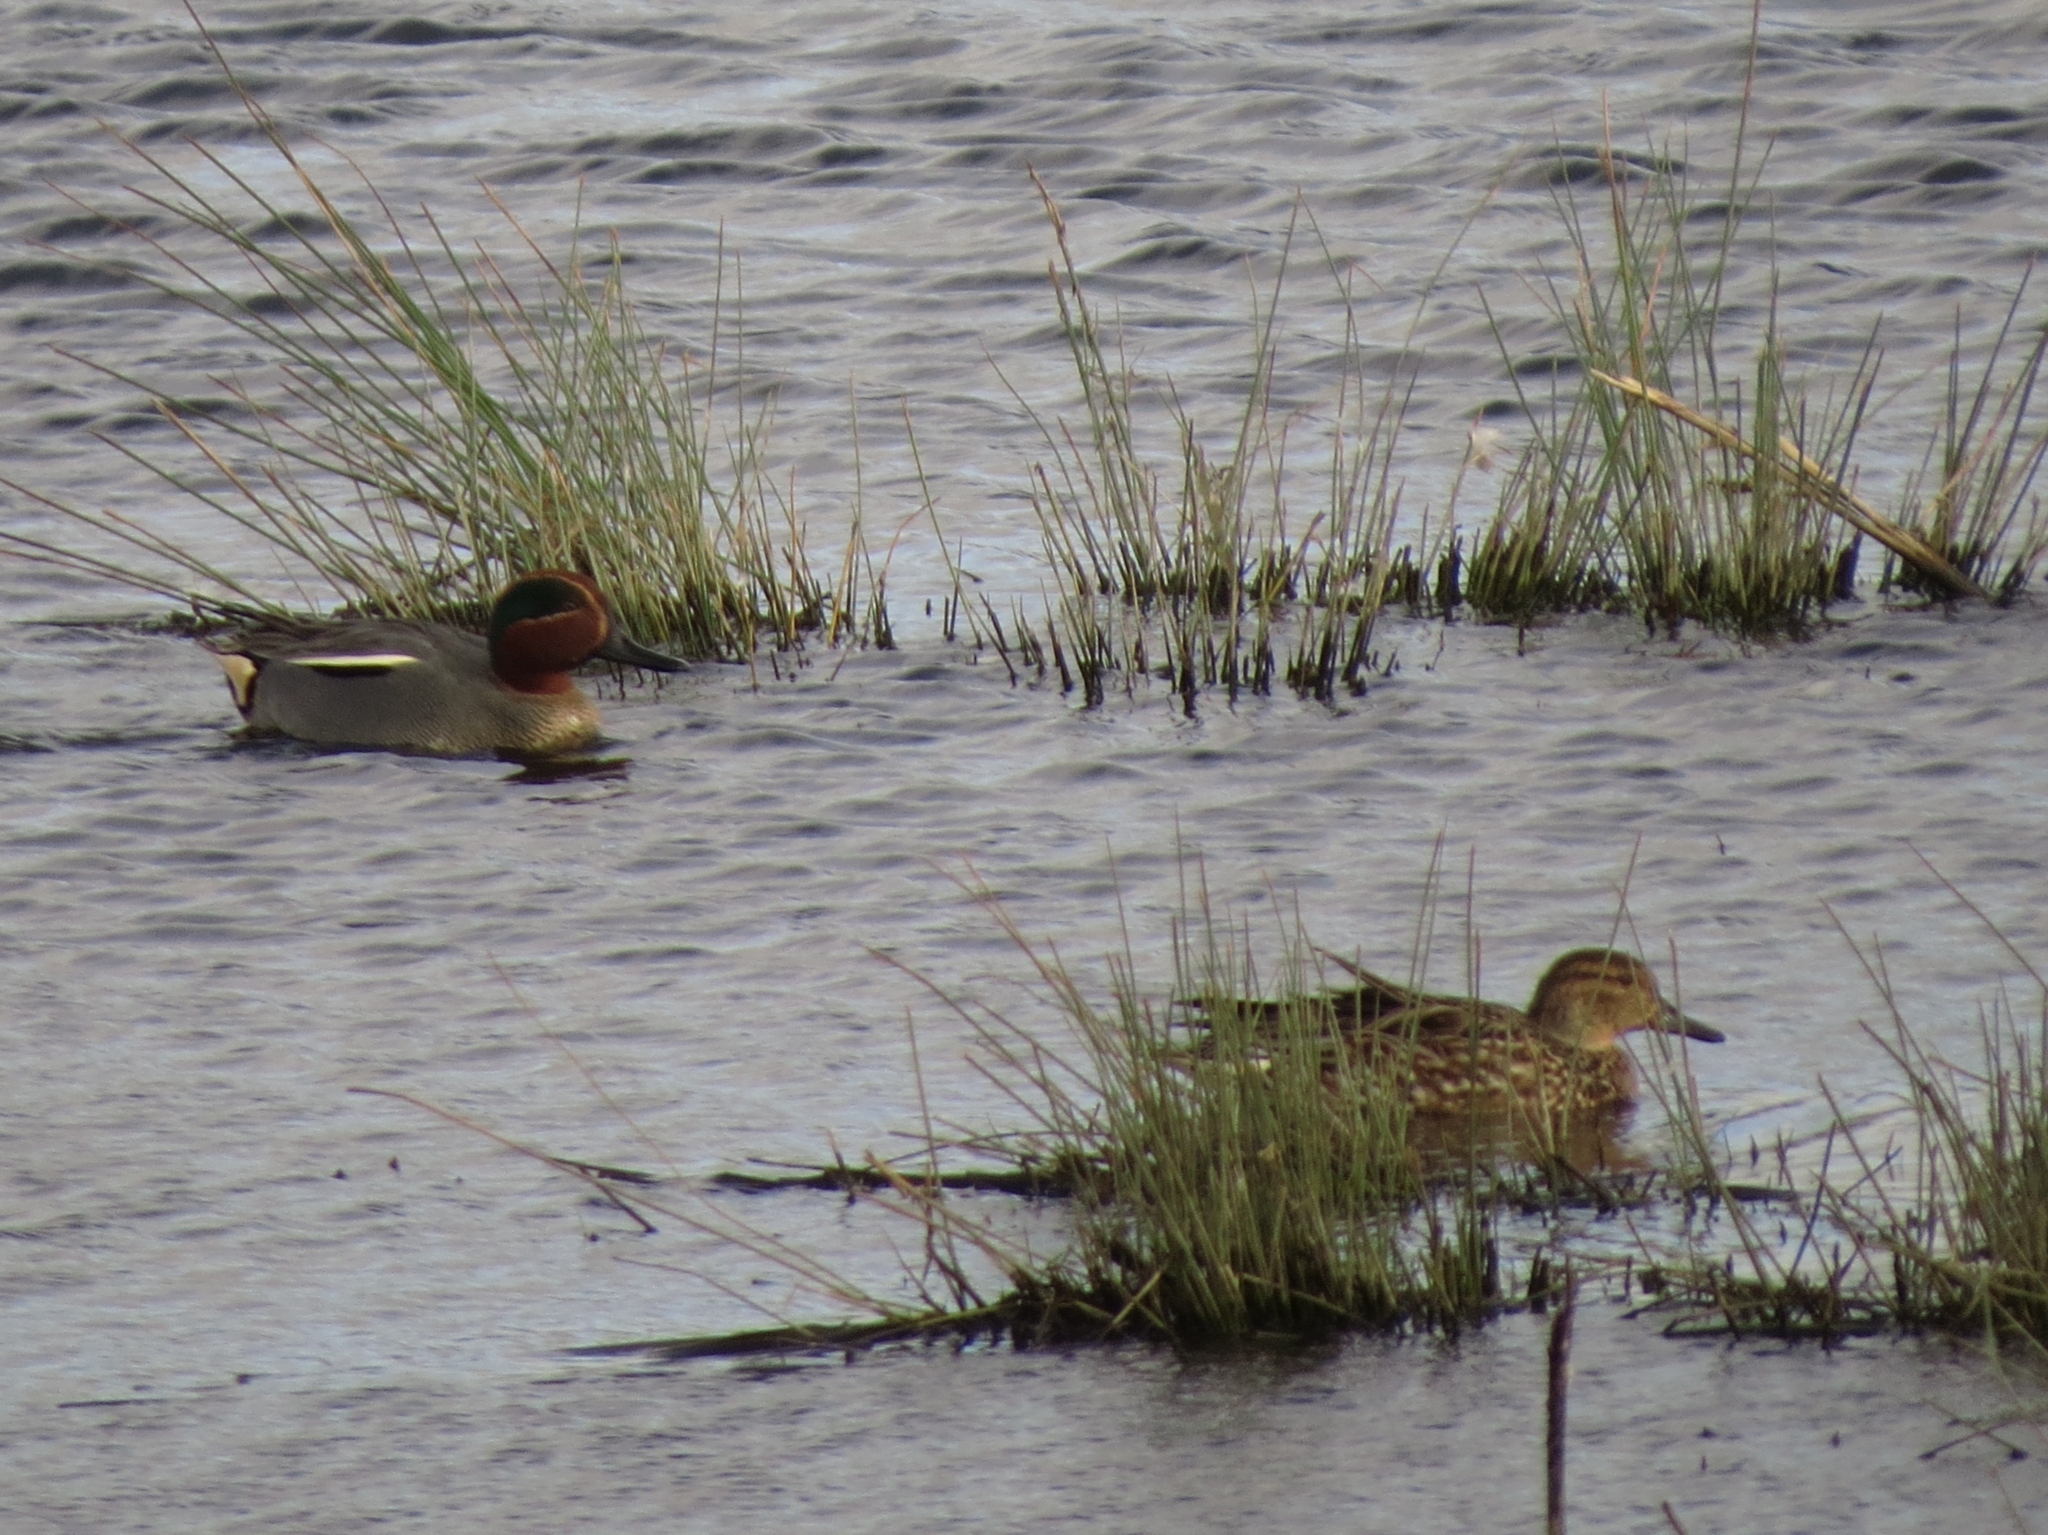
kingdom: Animalia
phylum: Chordata
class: Aves
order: Anseriformes
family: Anatidae
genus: Anas
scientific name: Anas crecca
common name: Eurasian teal
